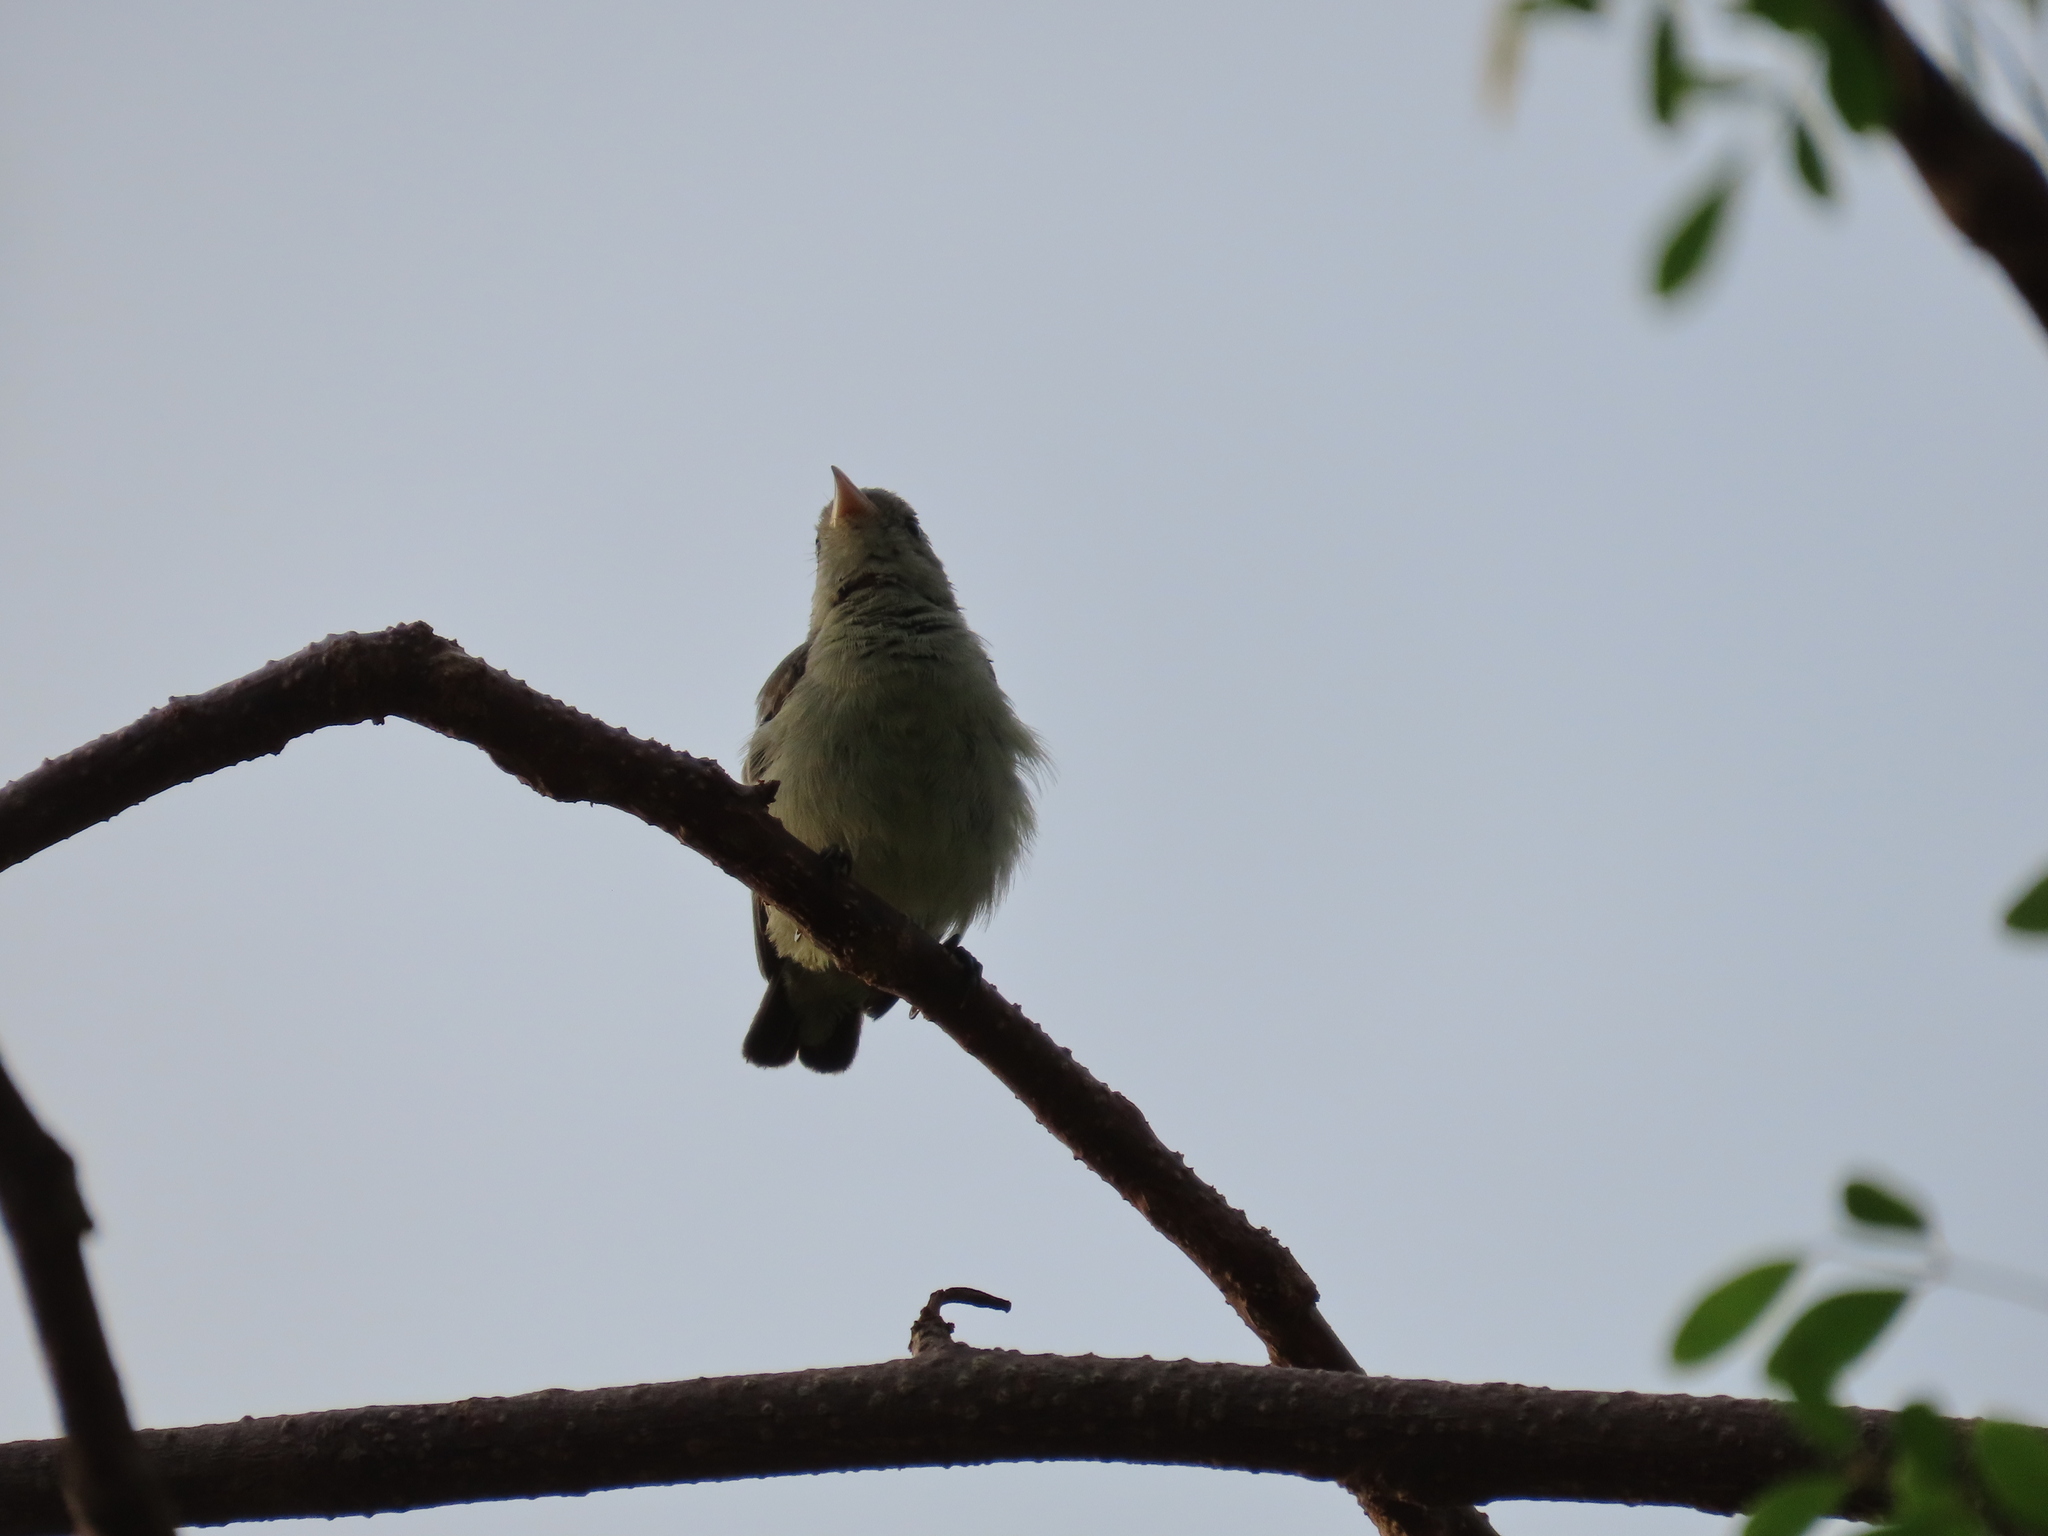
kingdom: Animalia
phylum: Chordata
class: Aves
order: Passeriformes
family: Dicaeidae
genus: Dicaeum
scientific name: Dicaeum erythrorhynchos
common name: Pale-billed flowerpecker
